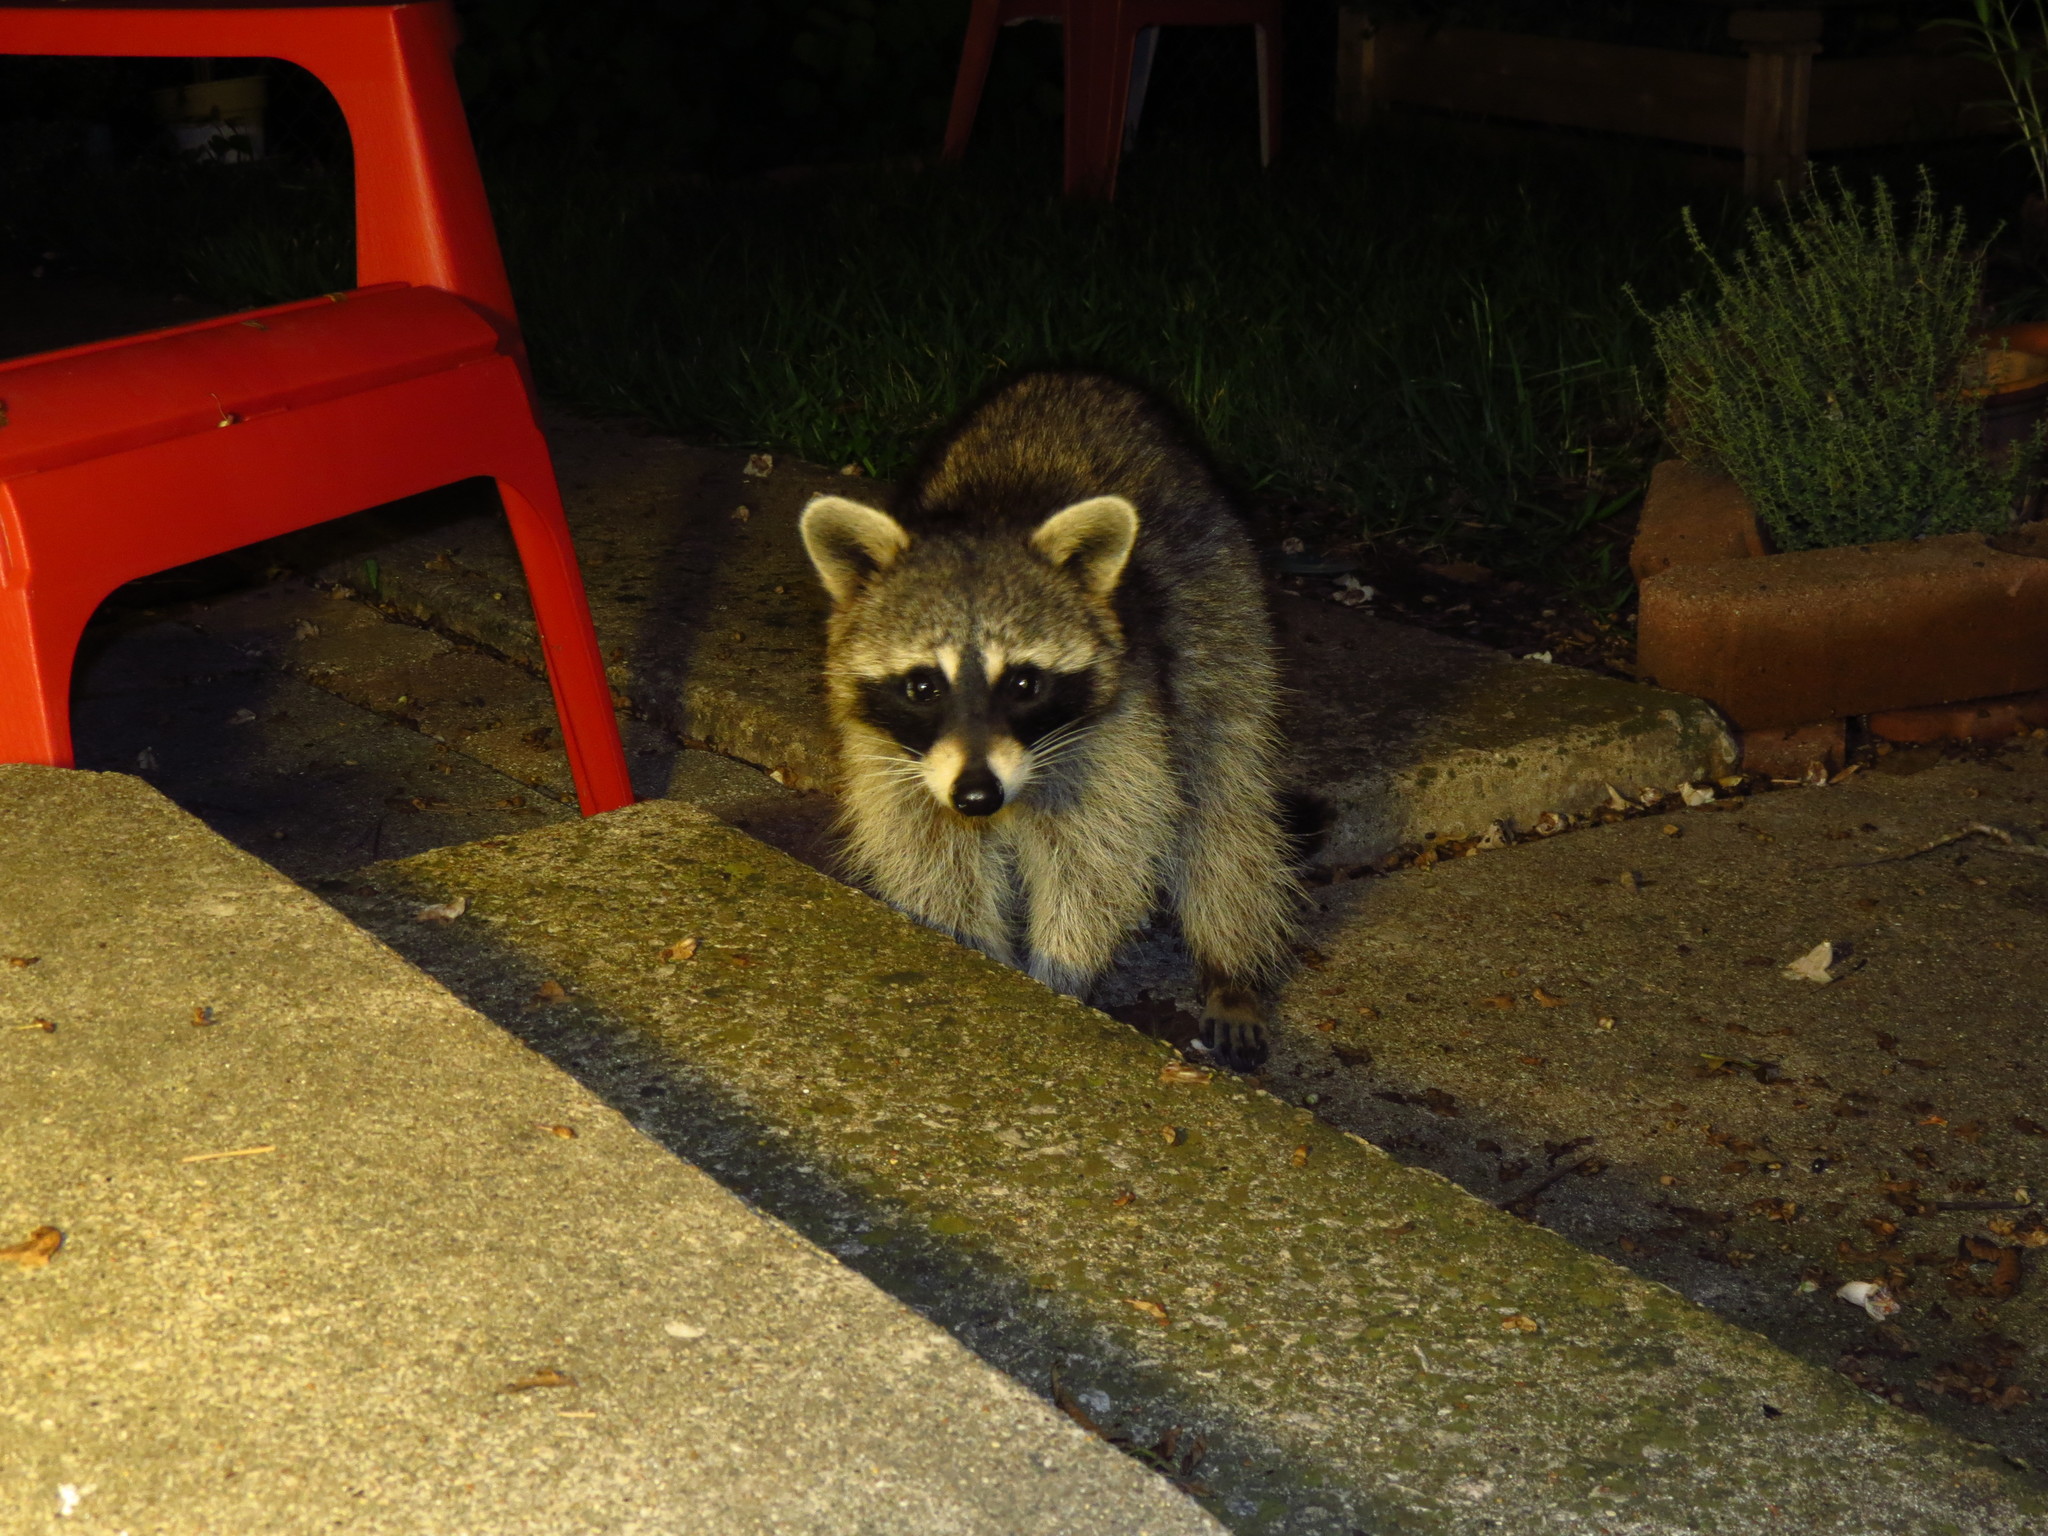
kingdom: Animalia
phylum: Chordata
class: Mammalia
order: Carnivora
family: Procyonidae
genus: Procyon
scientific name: Procyon lotor
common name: Raccoon
